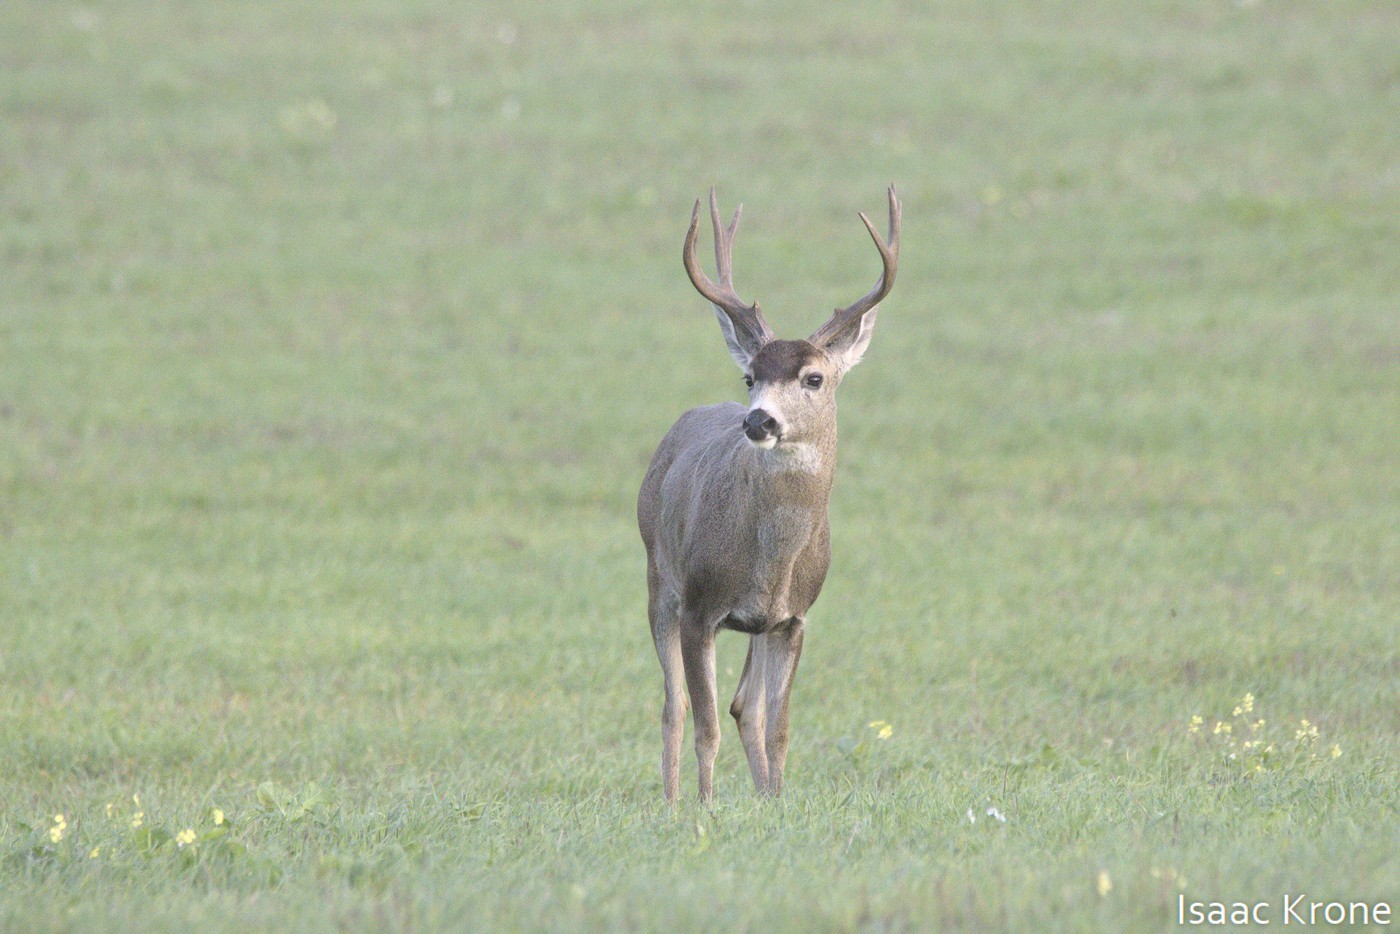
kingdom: Animalia
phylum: Chordata
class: Mammalia
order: Artiodactyla
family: Cervidae
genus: Odocoileus
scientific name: Odocoileus hemionus
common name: Mule deer
